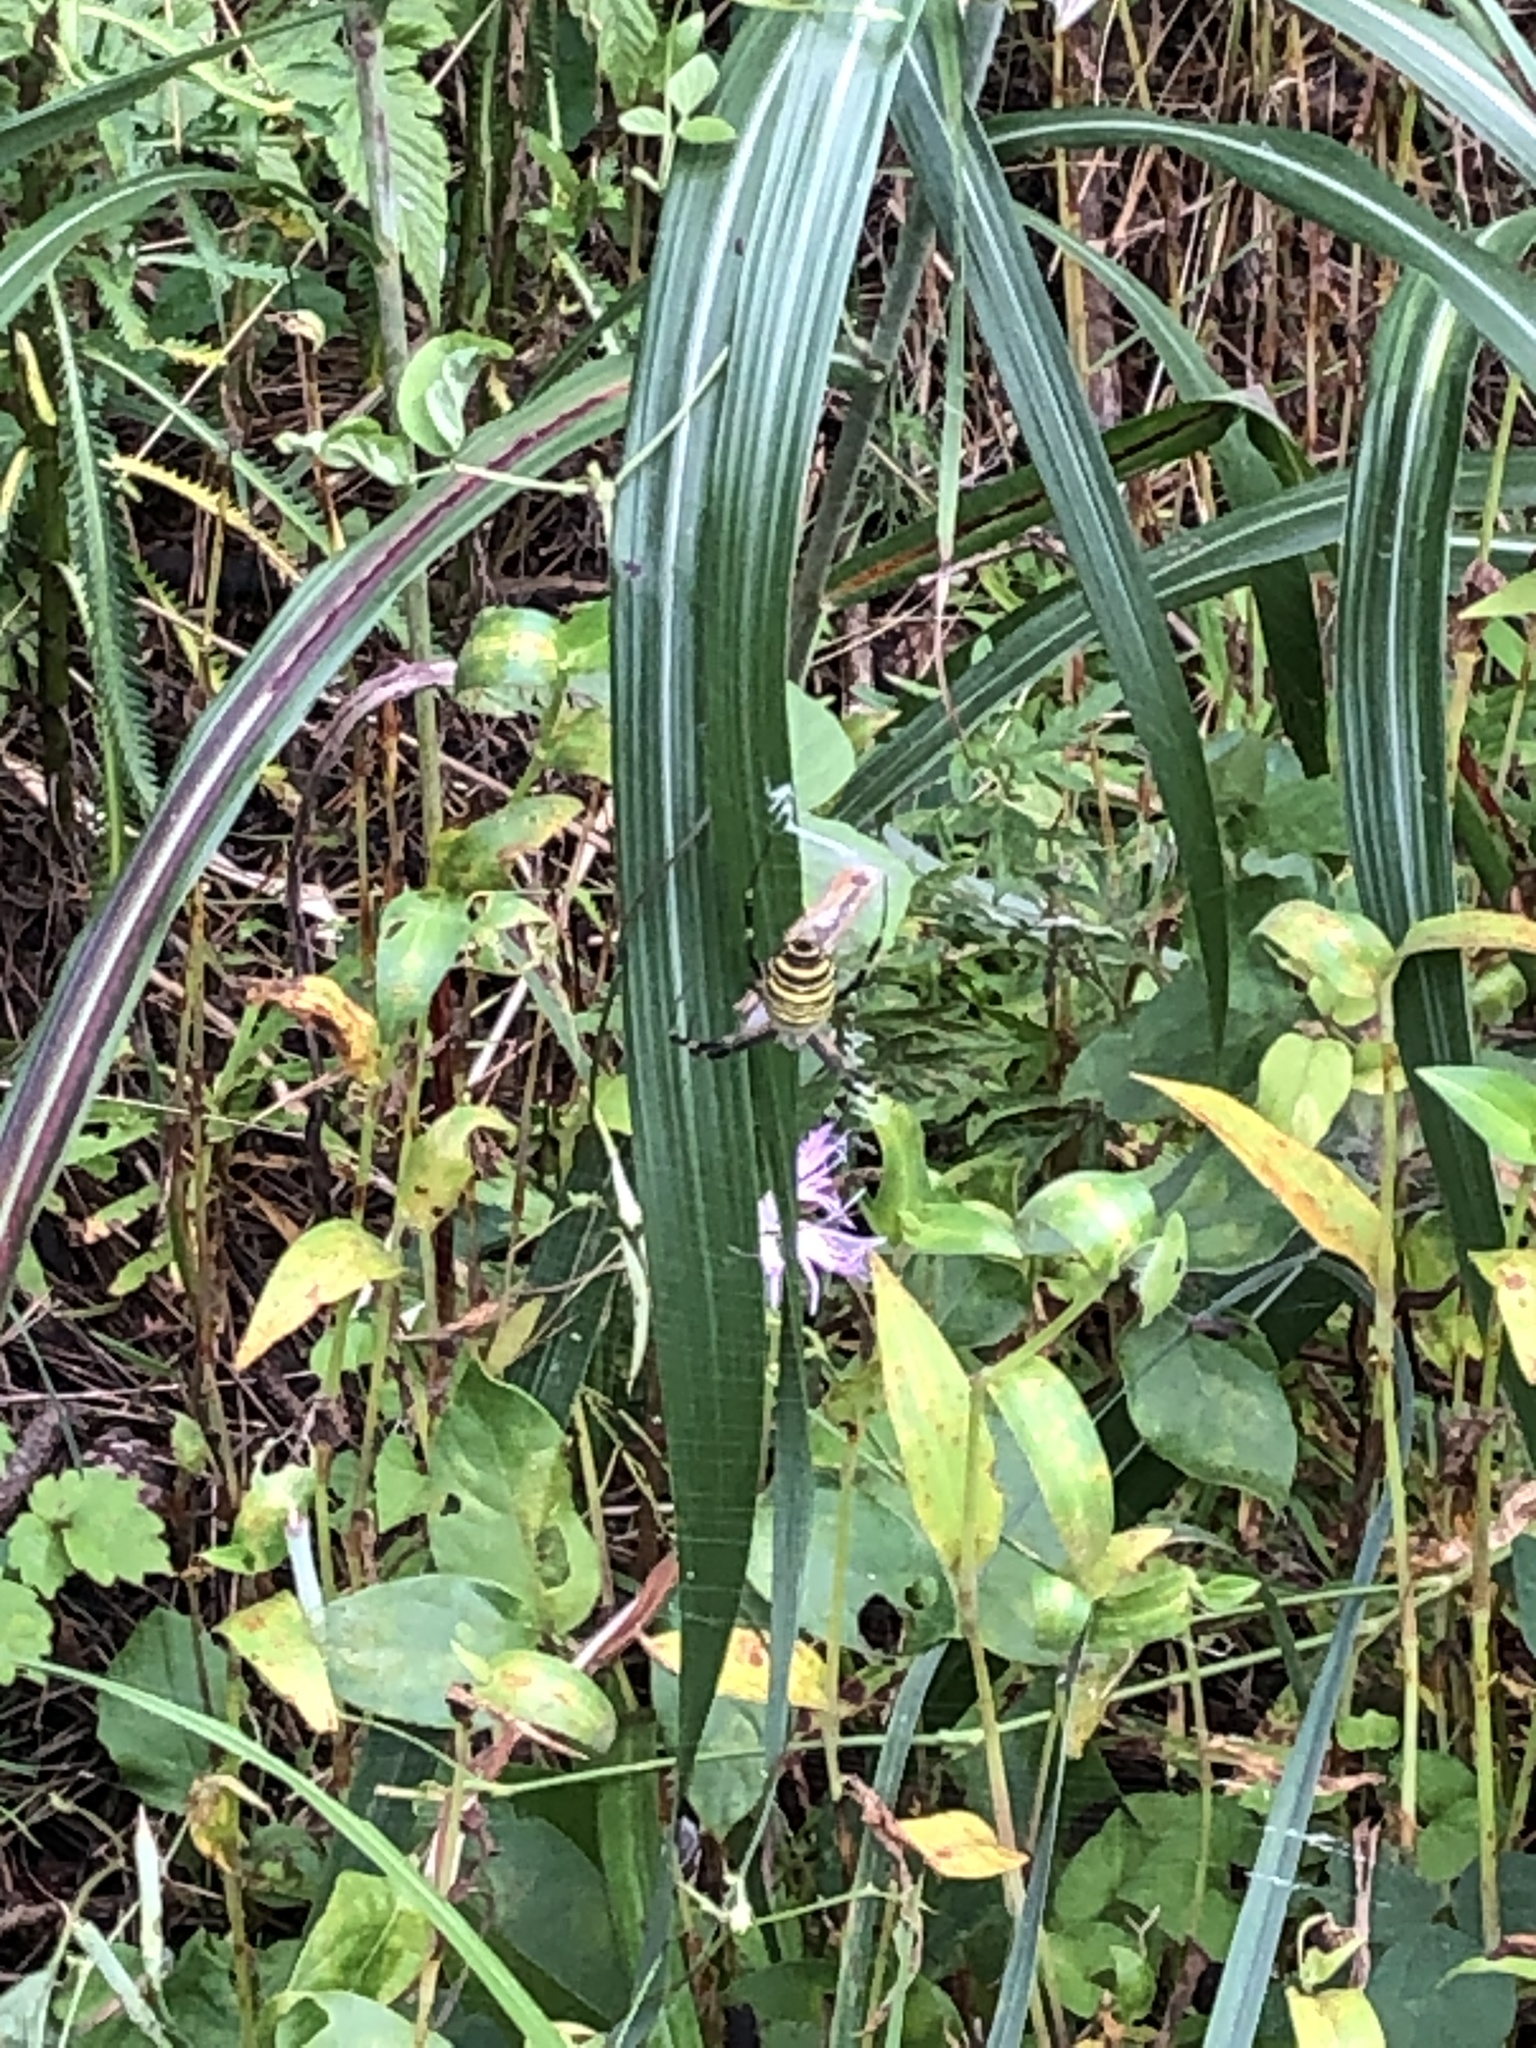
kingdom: Animalia
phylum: Arthropoda
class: Arachnida
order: Araneae
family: Araneidae
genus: Argiope
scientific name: Argiope bruennichi
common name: Wasp spider
